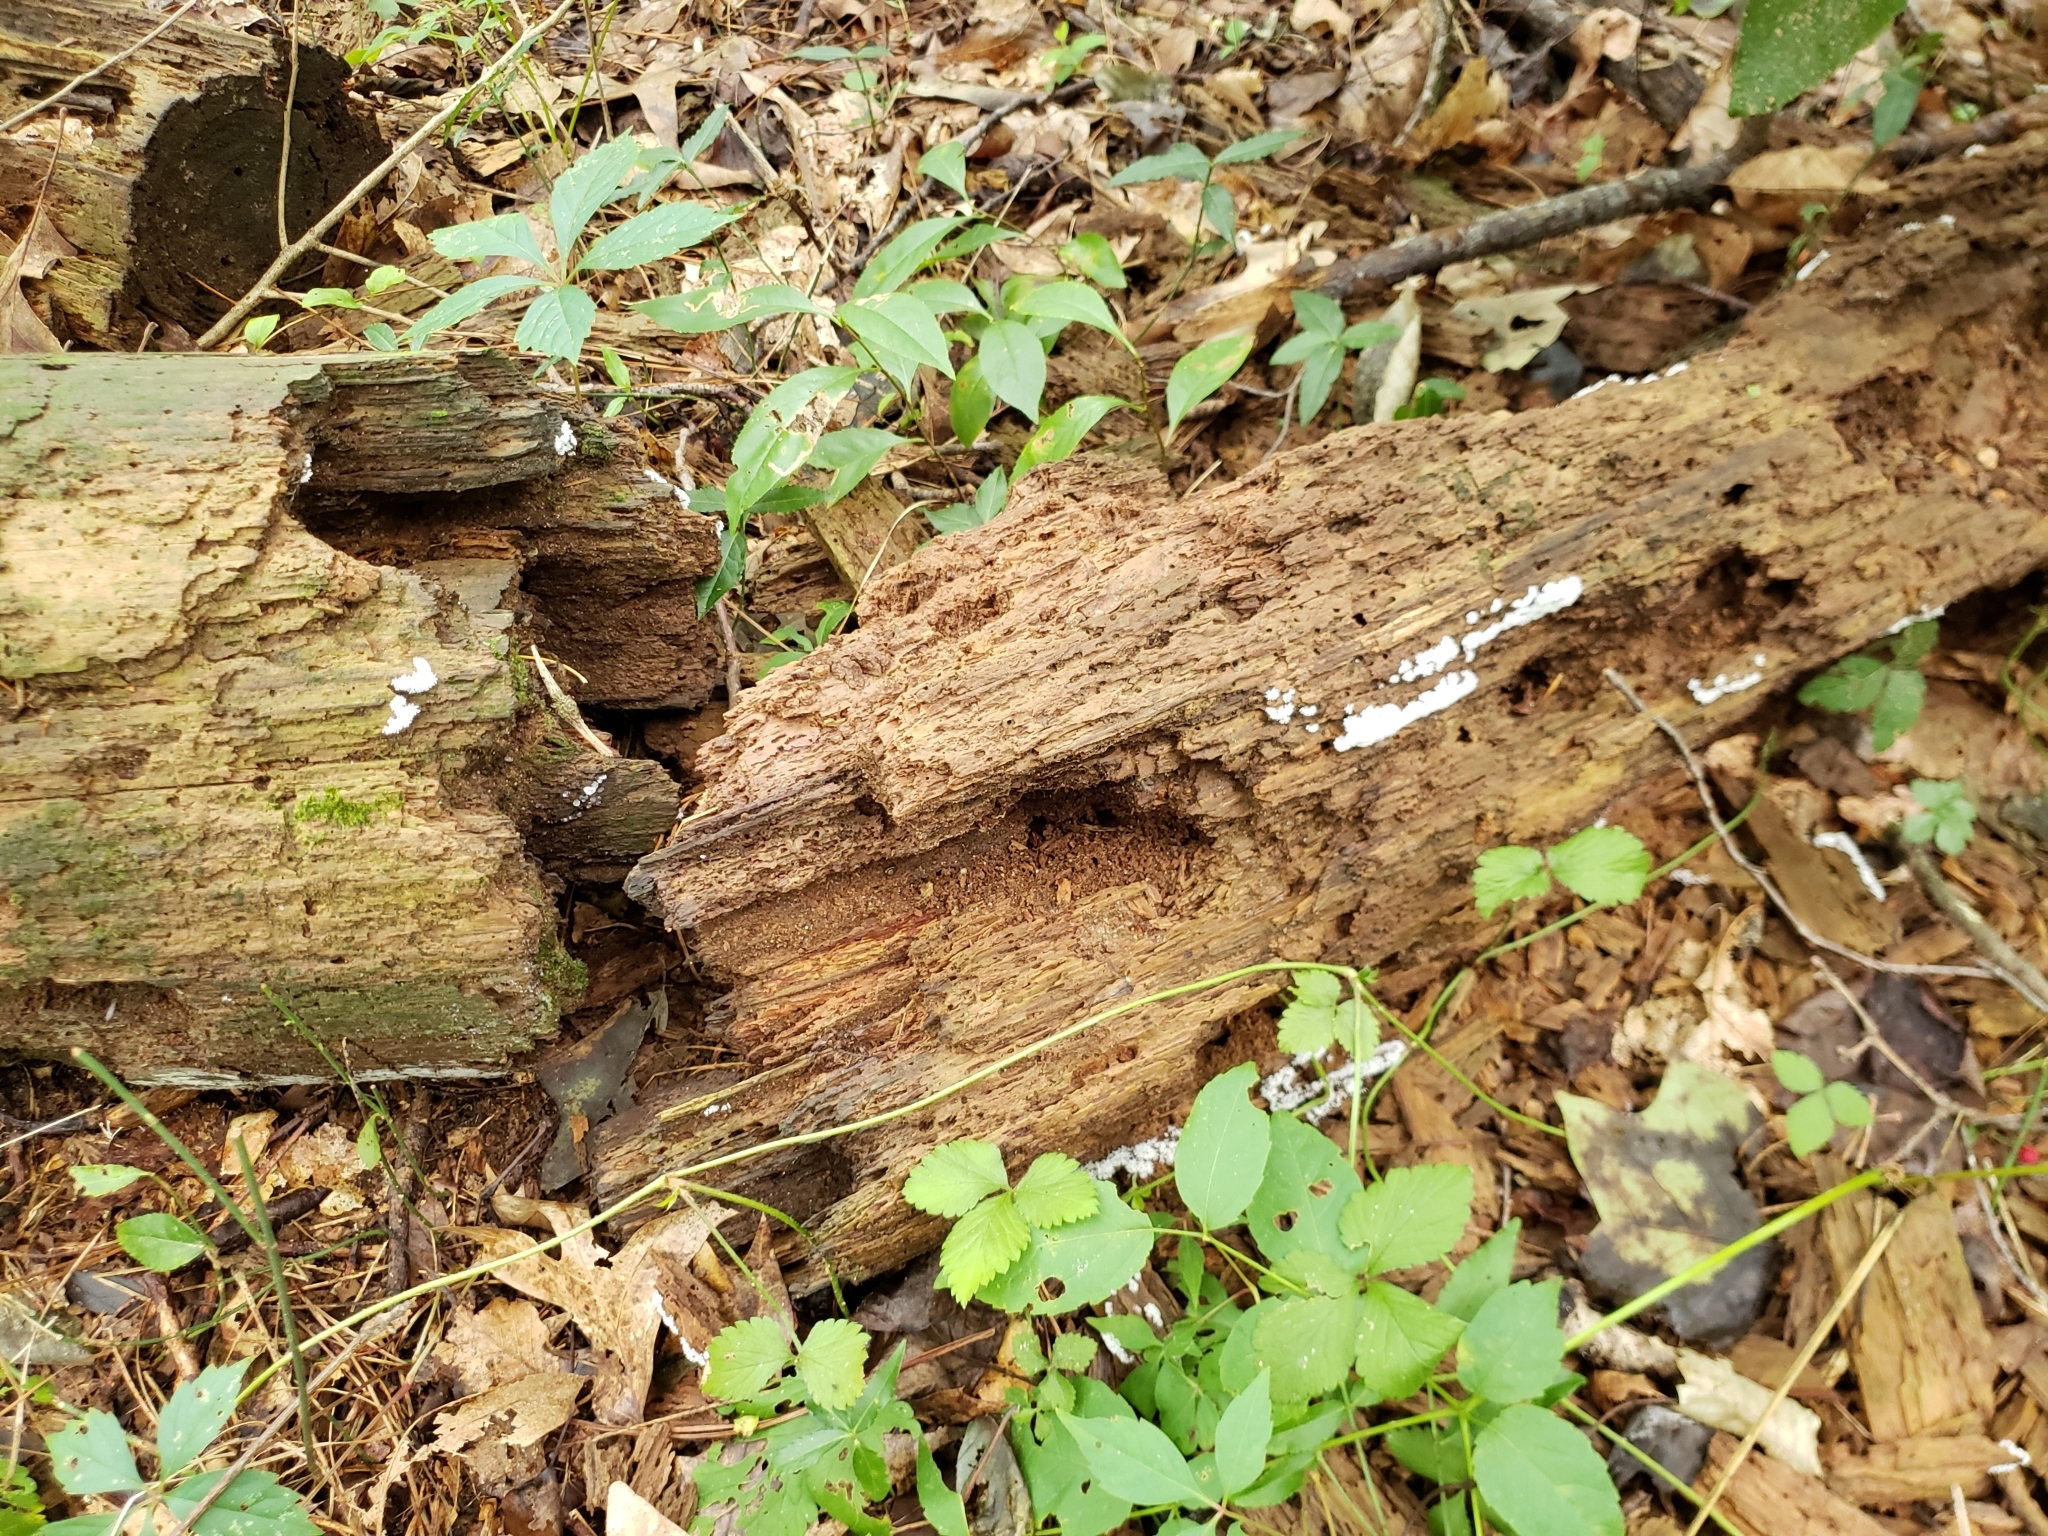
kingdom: Protozoa
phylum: Mycetozoa
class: Protosteliomycetes
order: Ceratiomyxales
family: Ceratiomyxaceae
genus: Ceratiomyxa
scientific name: Ceratiomyxa fruticulosa
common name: Honeycomb coral slime mold
